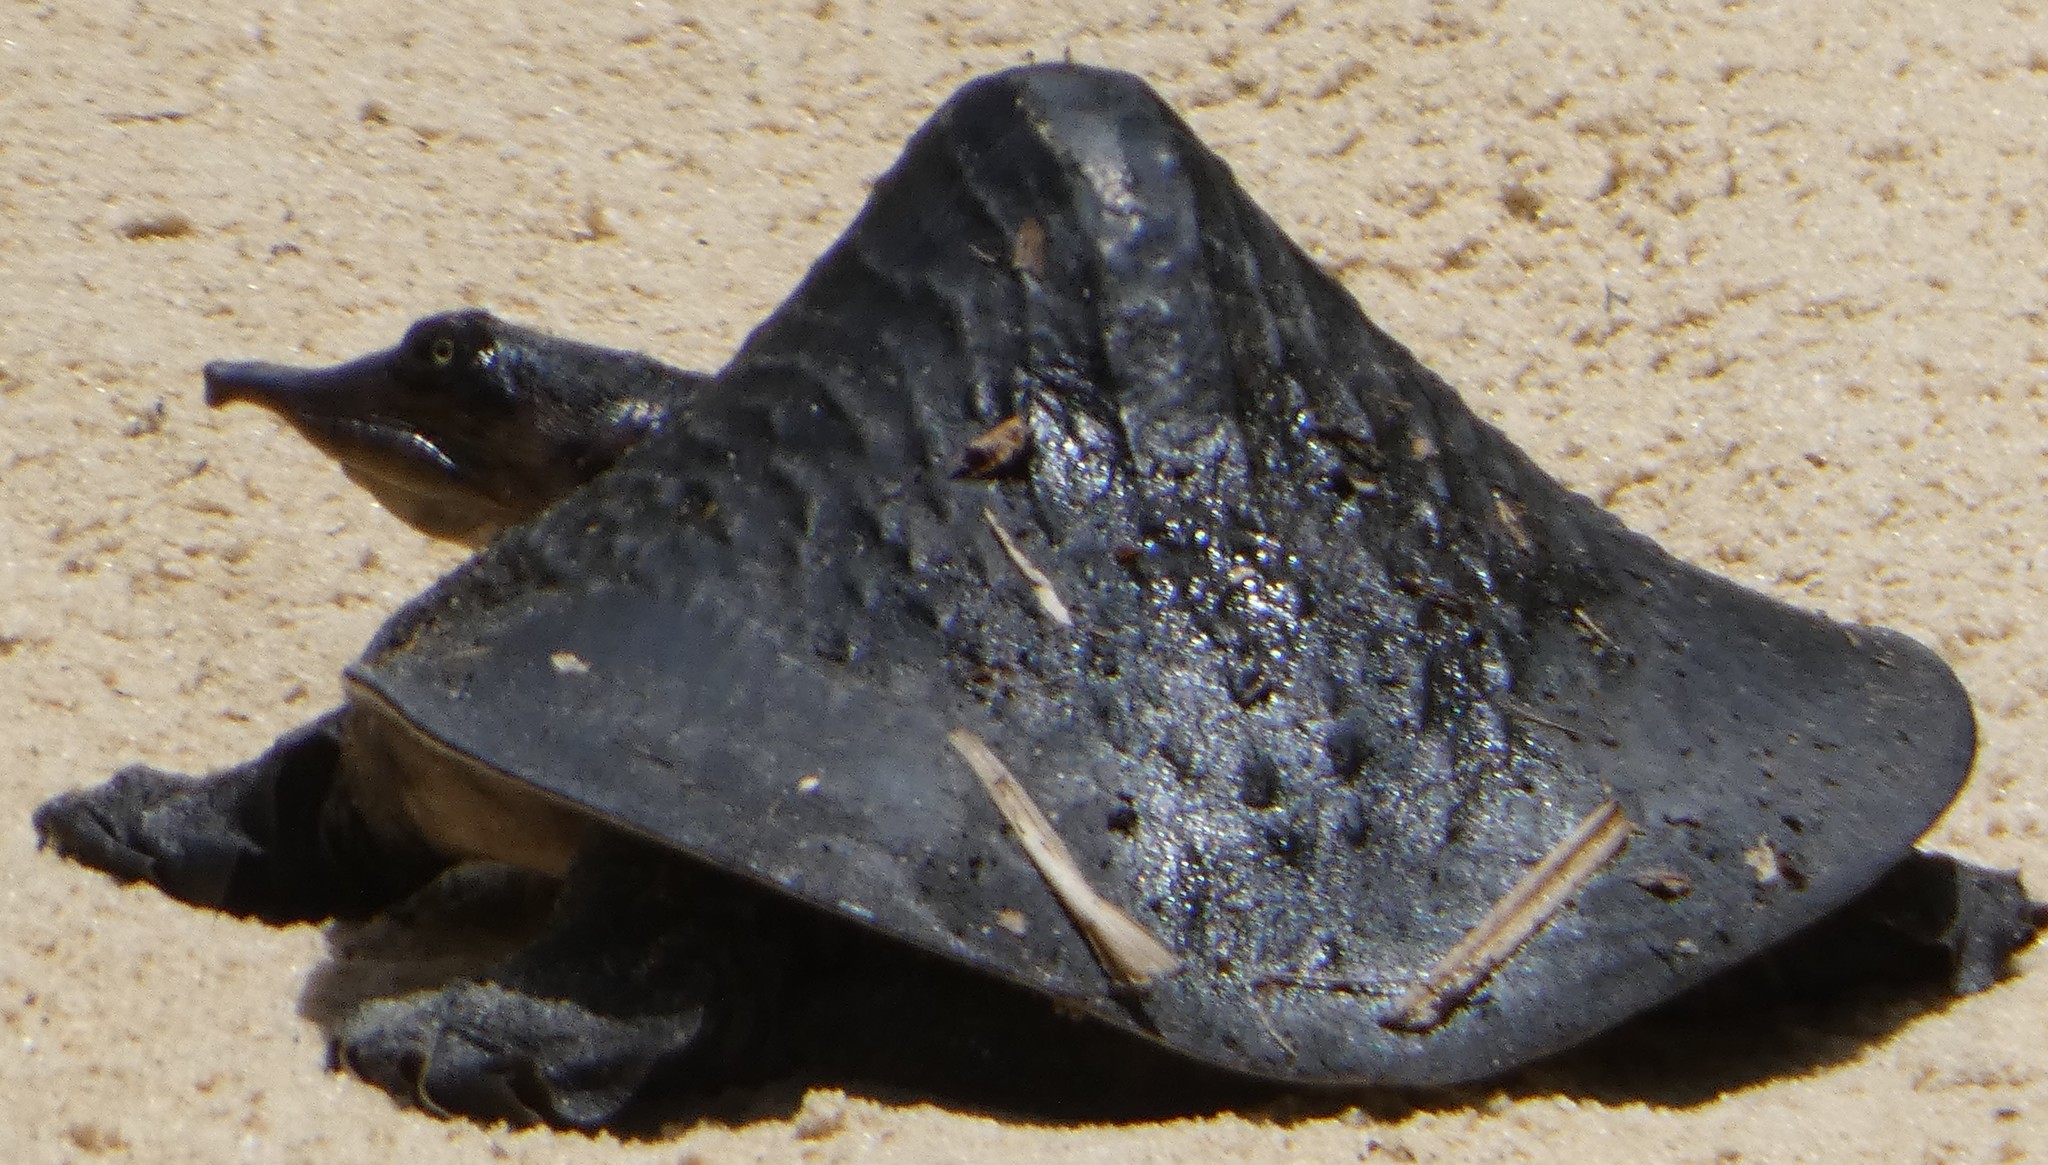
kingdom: Animalia
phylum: Chordata
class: Testudines
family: Trionychidae
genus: Apalone
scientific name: Apalone ferox
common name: Florida softshell turtle
